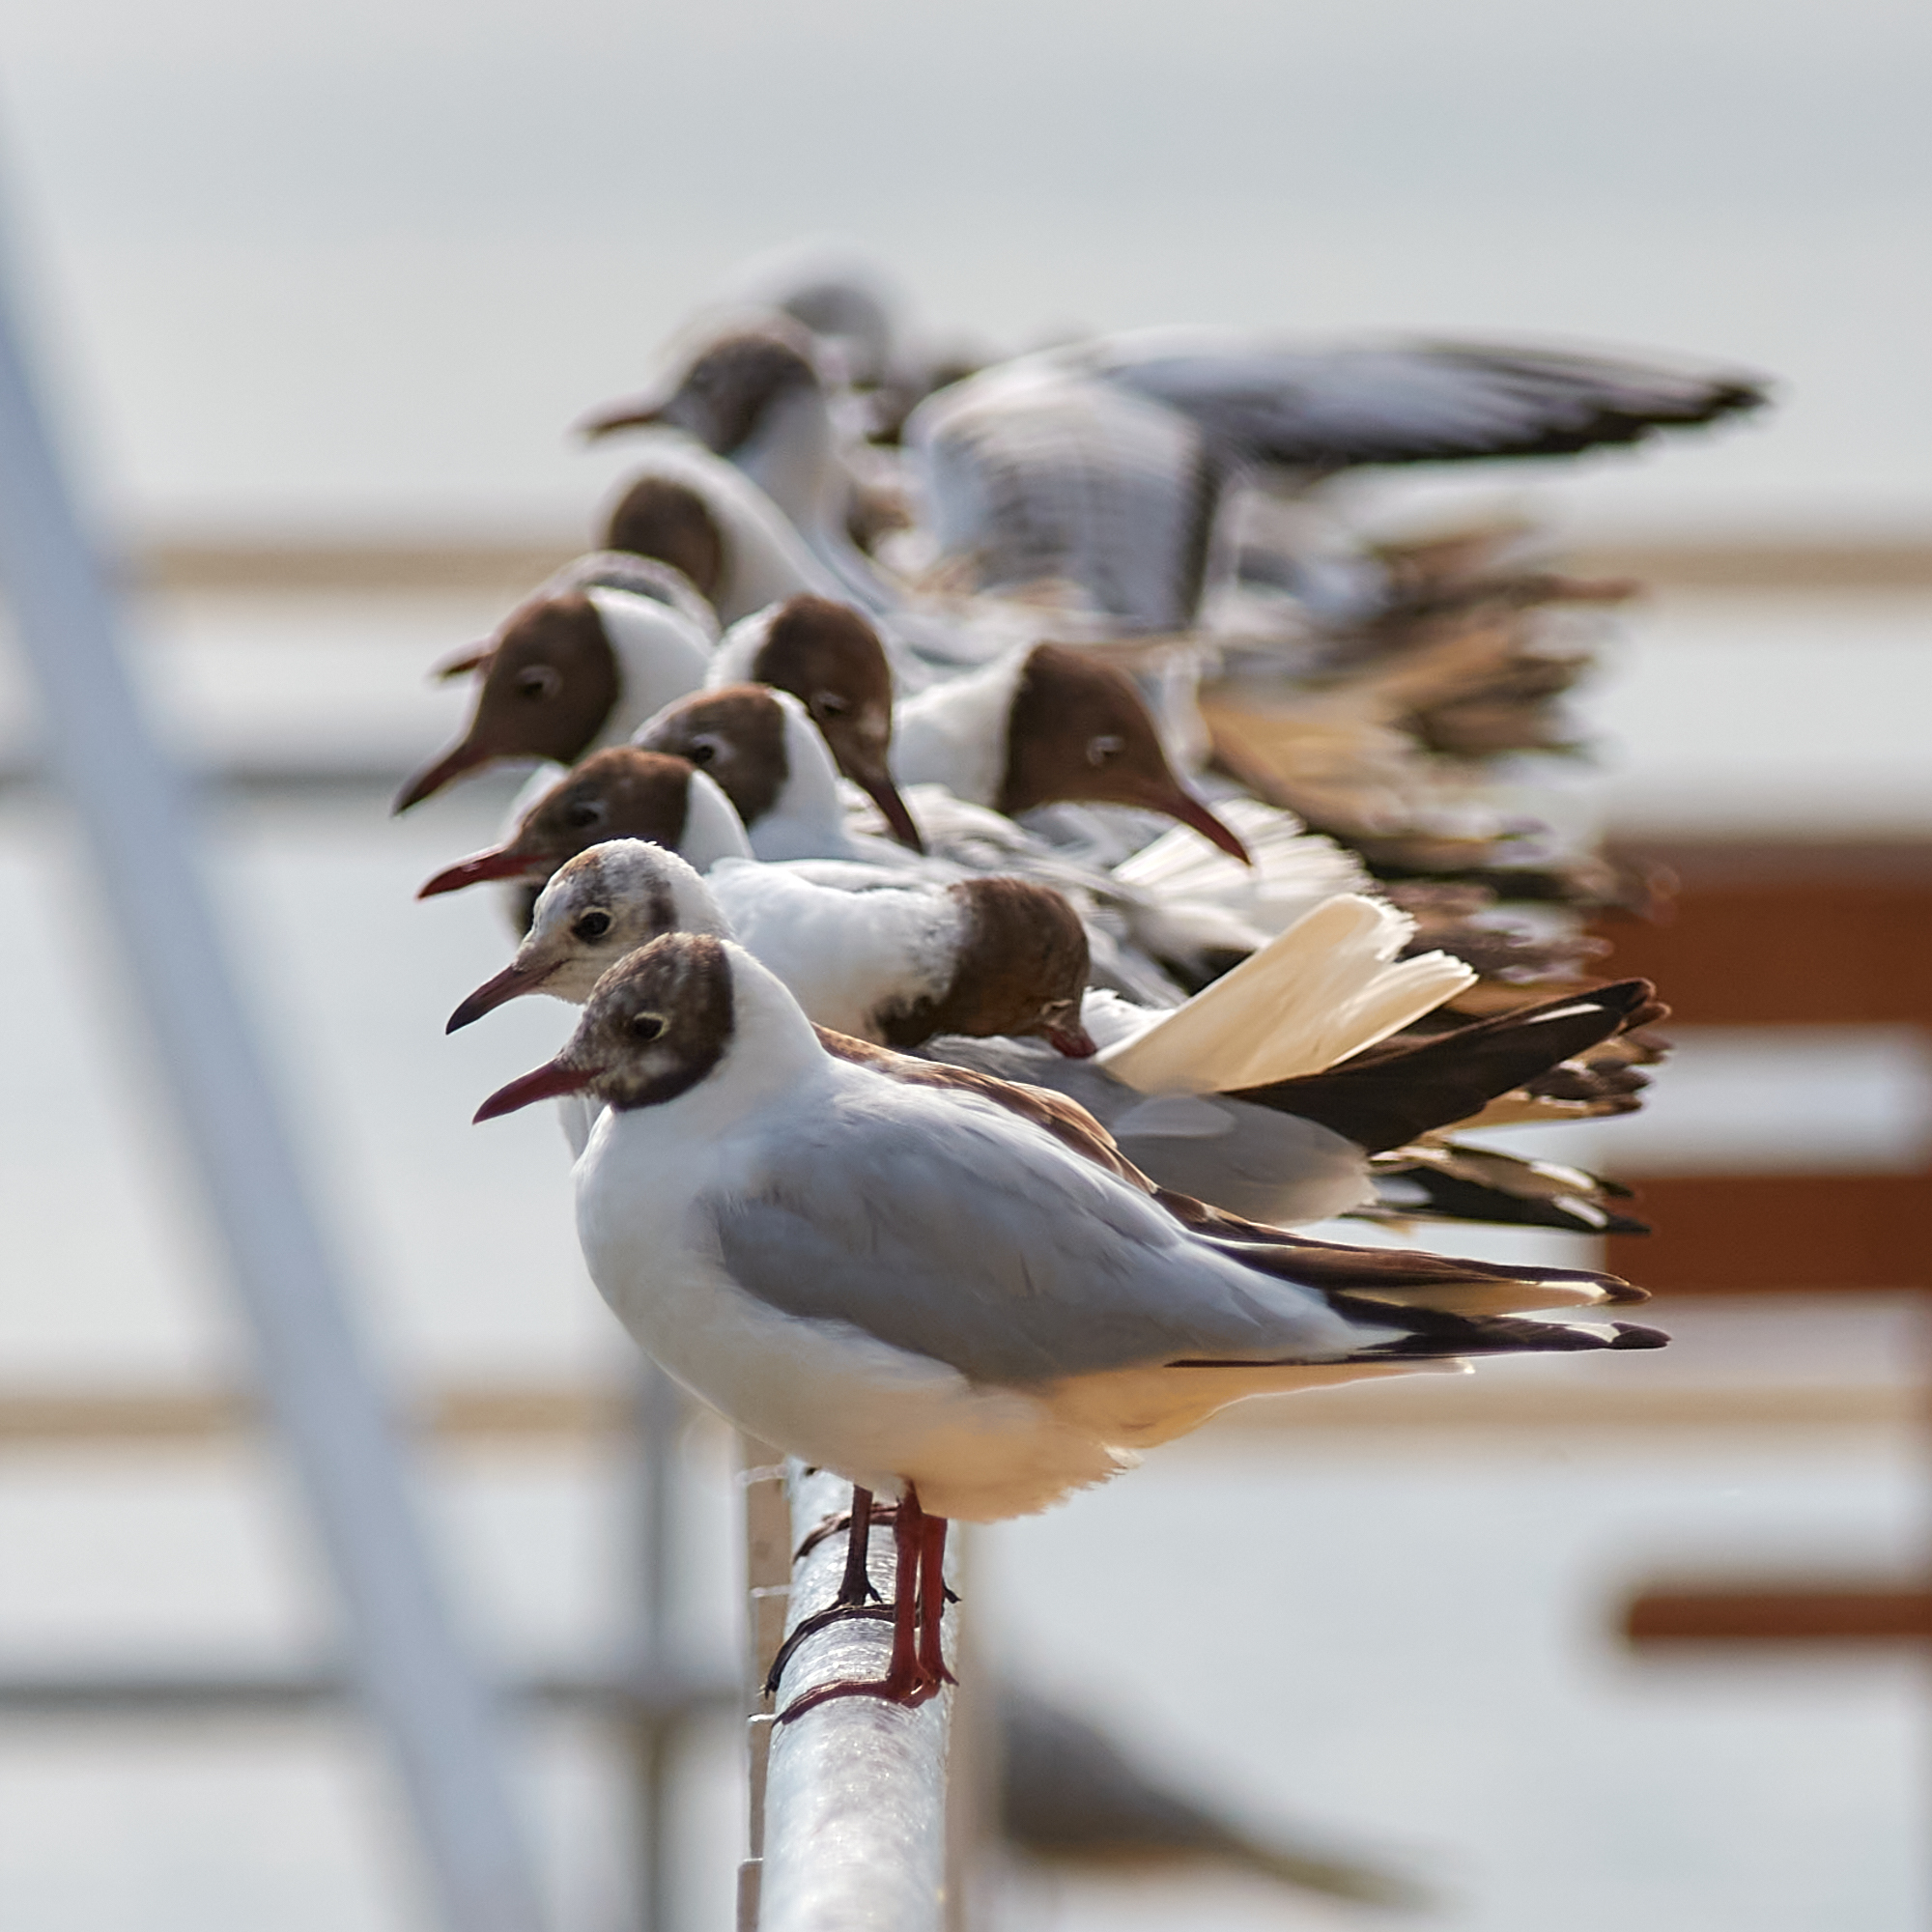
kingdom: Animalia
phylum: Chordata
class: Aves
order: Charadriiformes
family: Laridae
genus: Chroicocephalus
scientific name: Chroicocephalus ridibundus
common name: Black-headed gull
